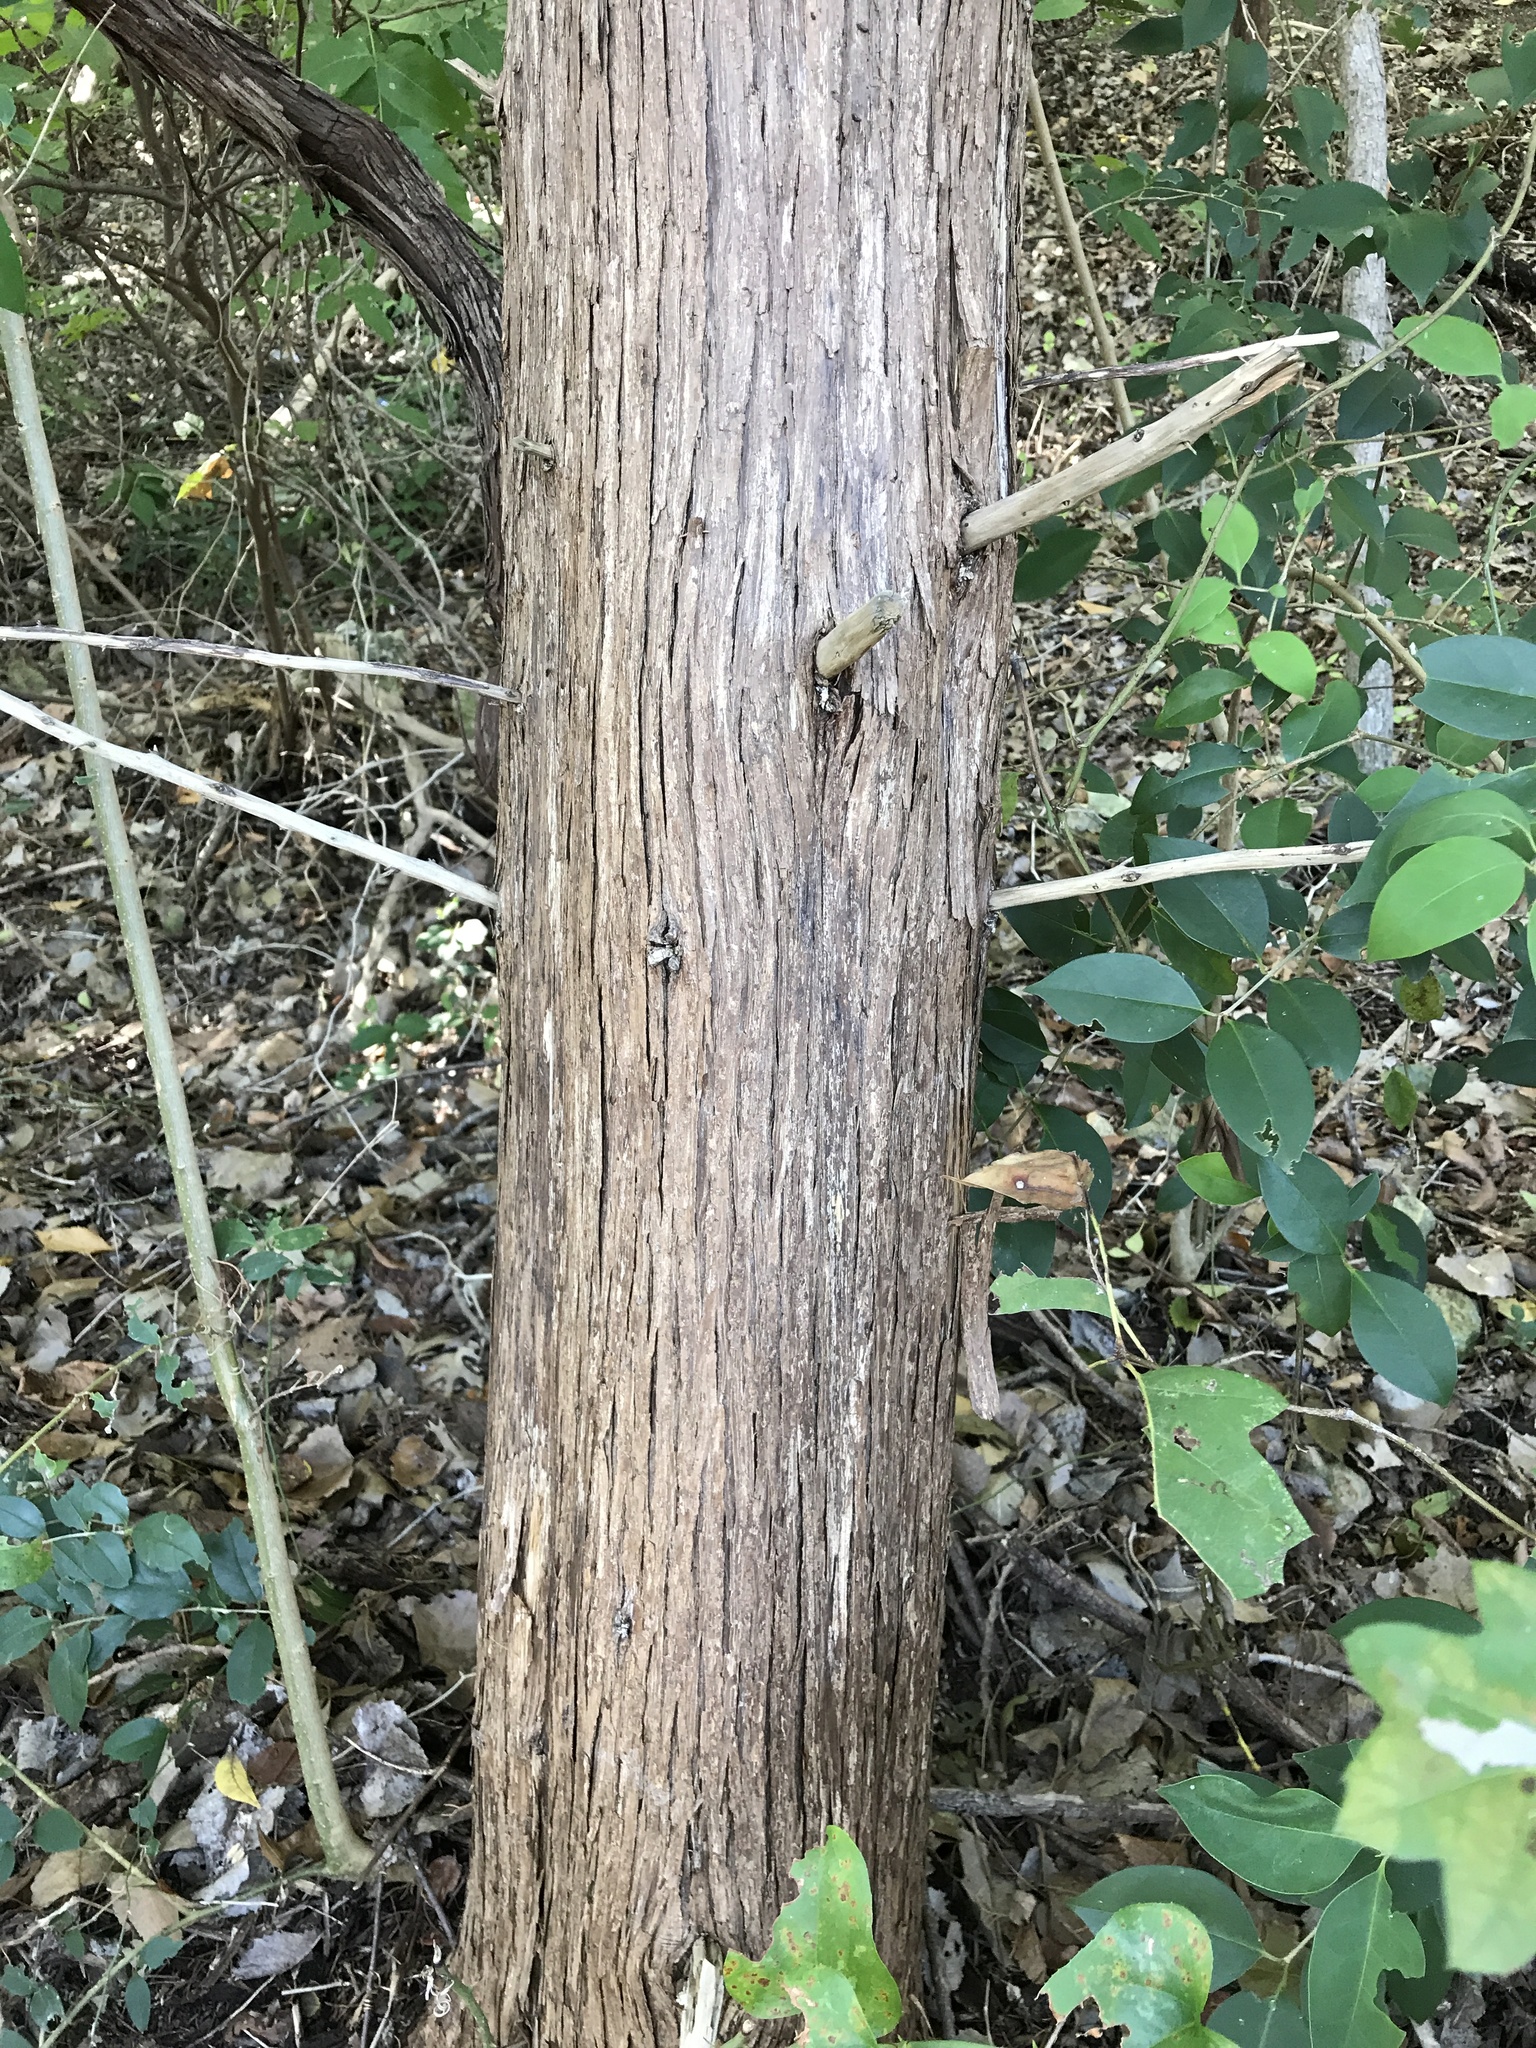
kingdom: Plantae
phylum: Tracheophyta
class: Pinopsida
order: Pinales
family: Cupressaceae
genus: Juniperus
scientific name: Juniperus virginiana
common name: Red juniper
